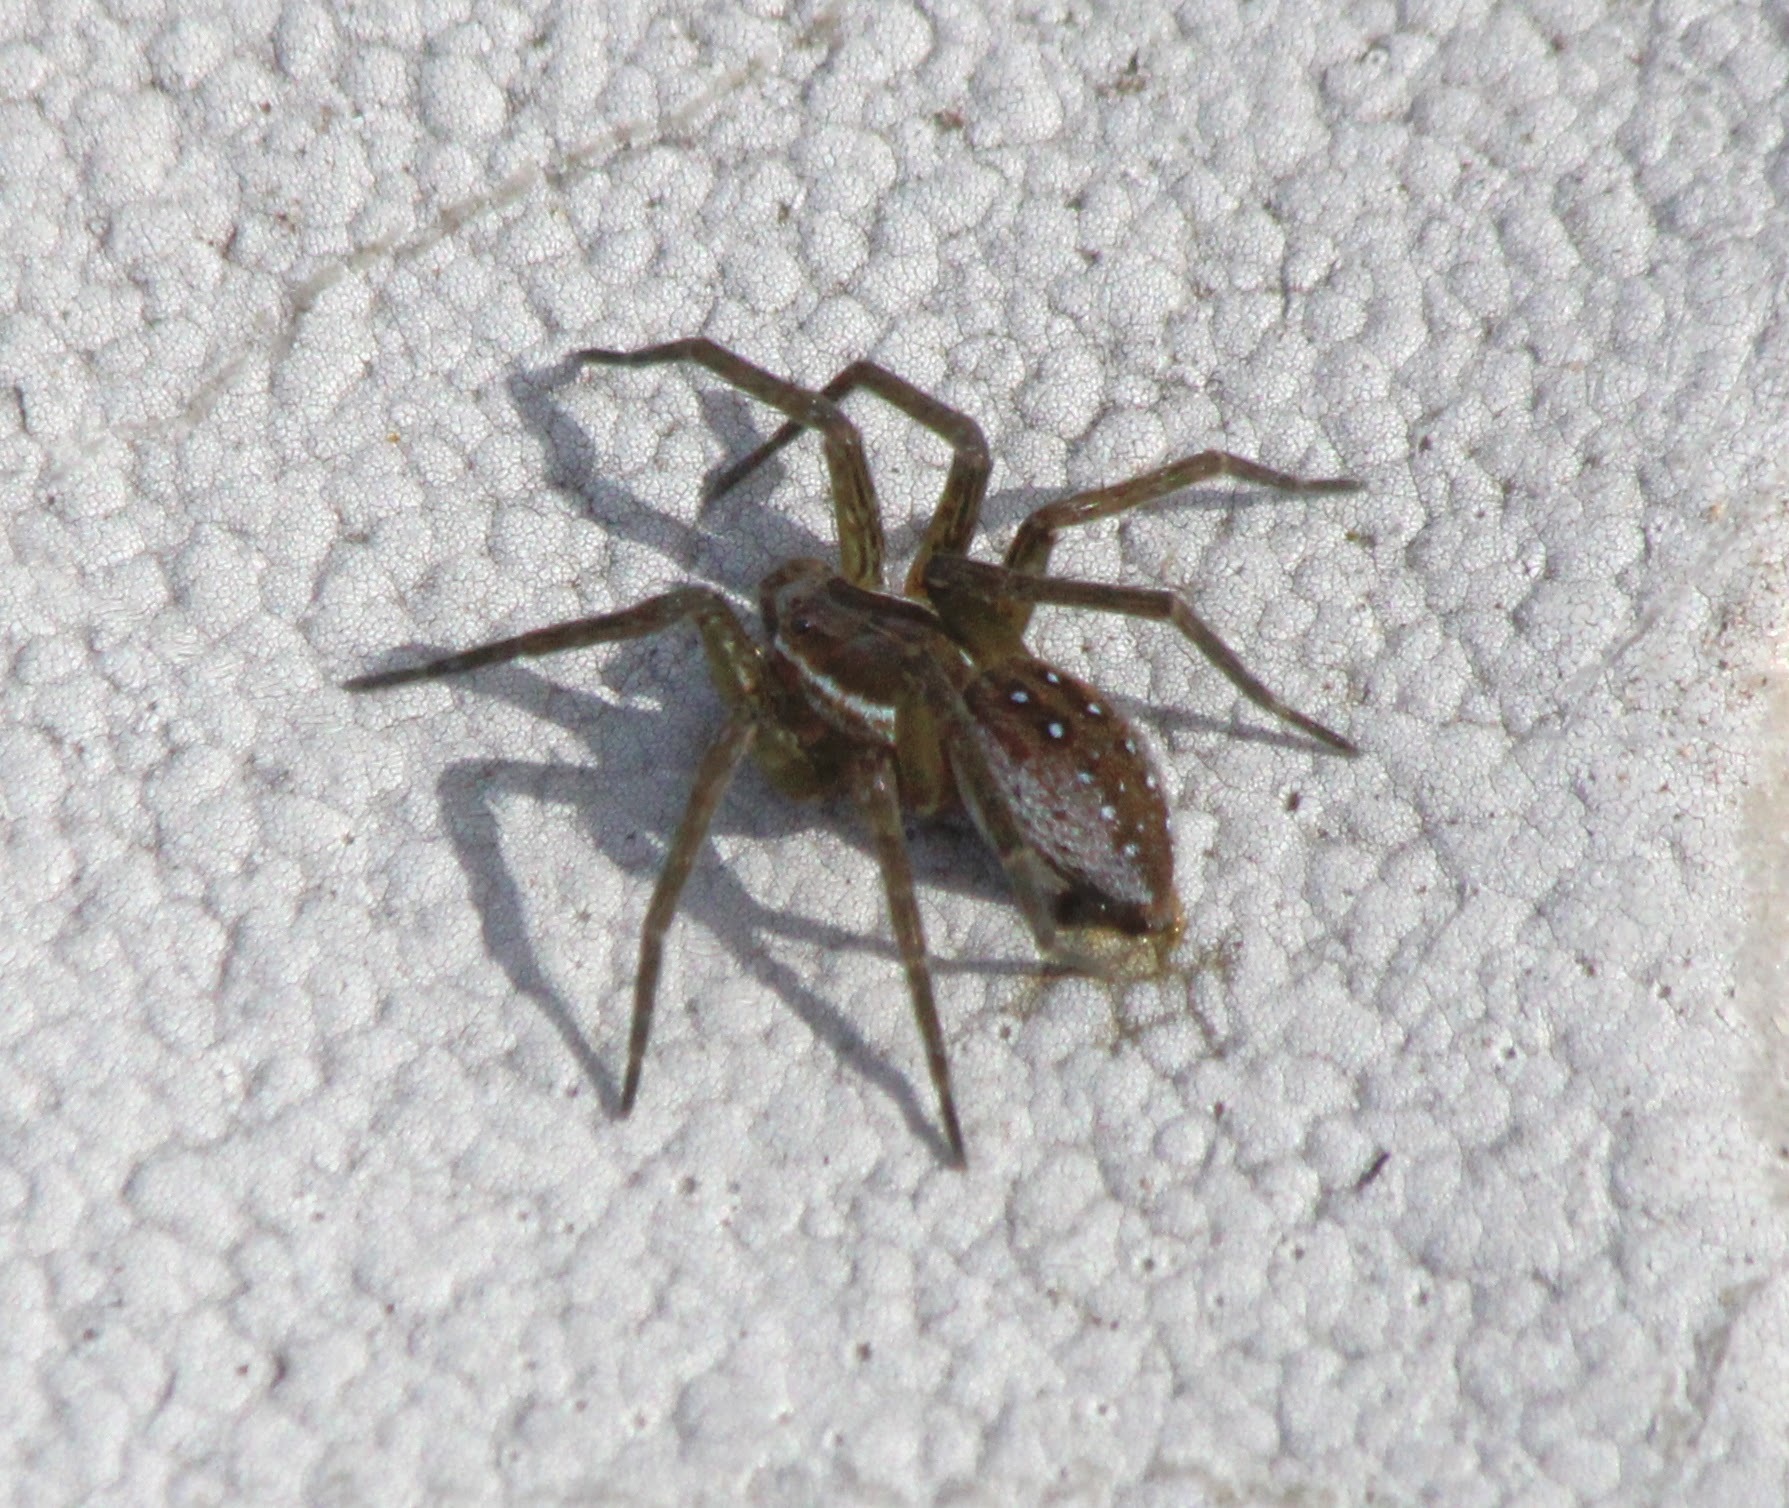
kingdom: Animalia
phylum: Arthropoda
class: Arachnida
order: Araneae
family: Pisauridae
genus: Dolomedes
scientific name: Dolomedes triton
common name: Six-spotted fishing spider
